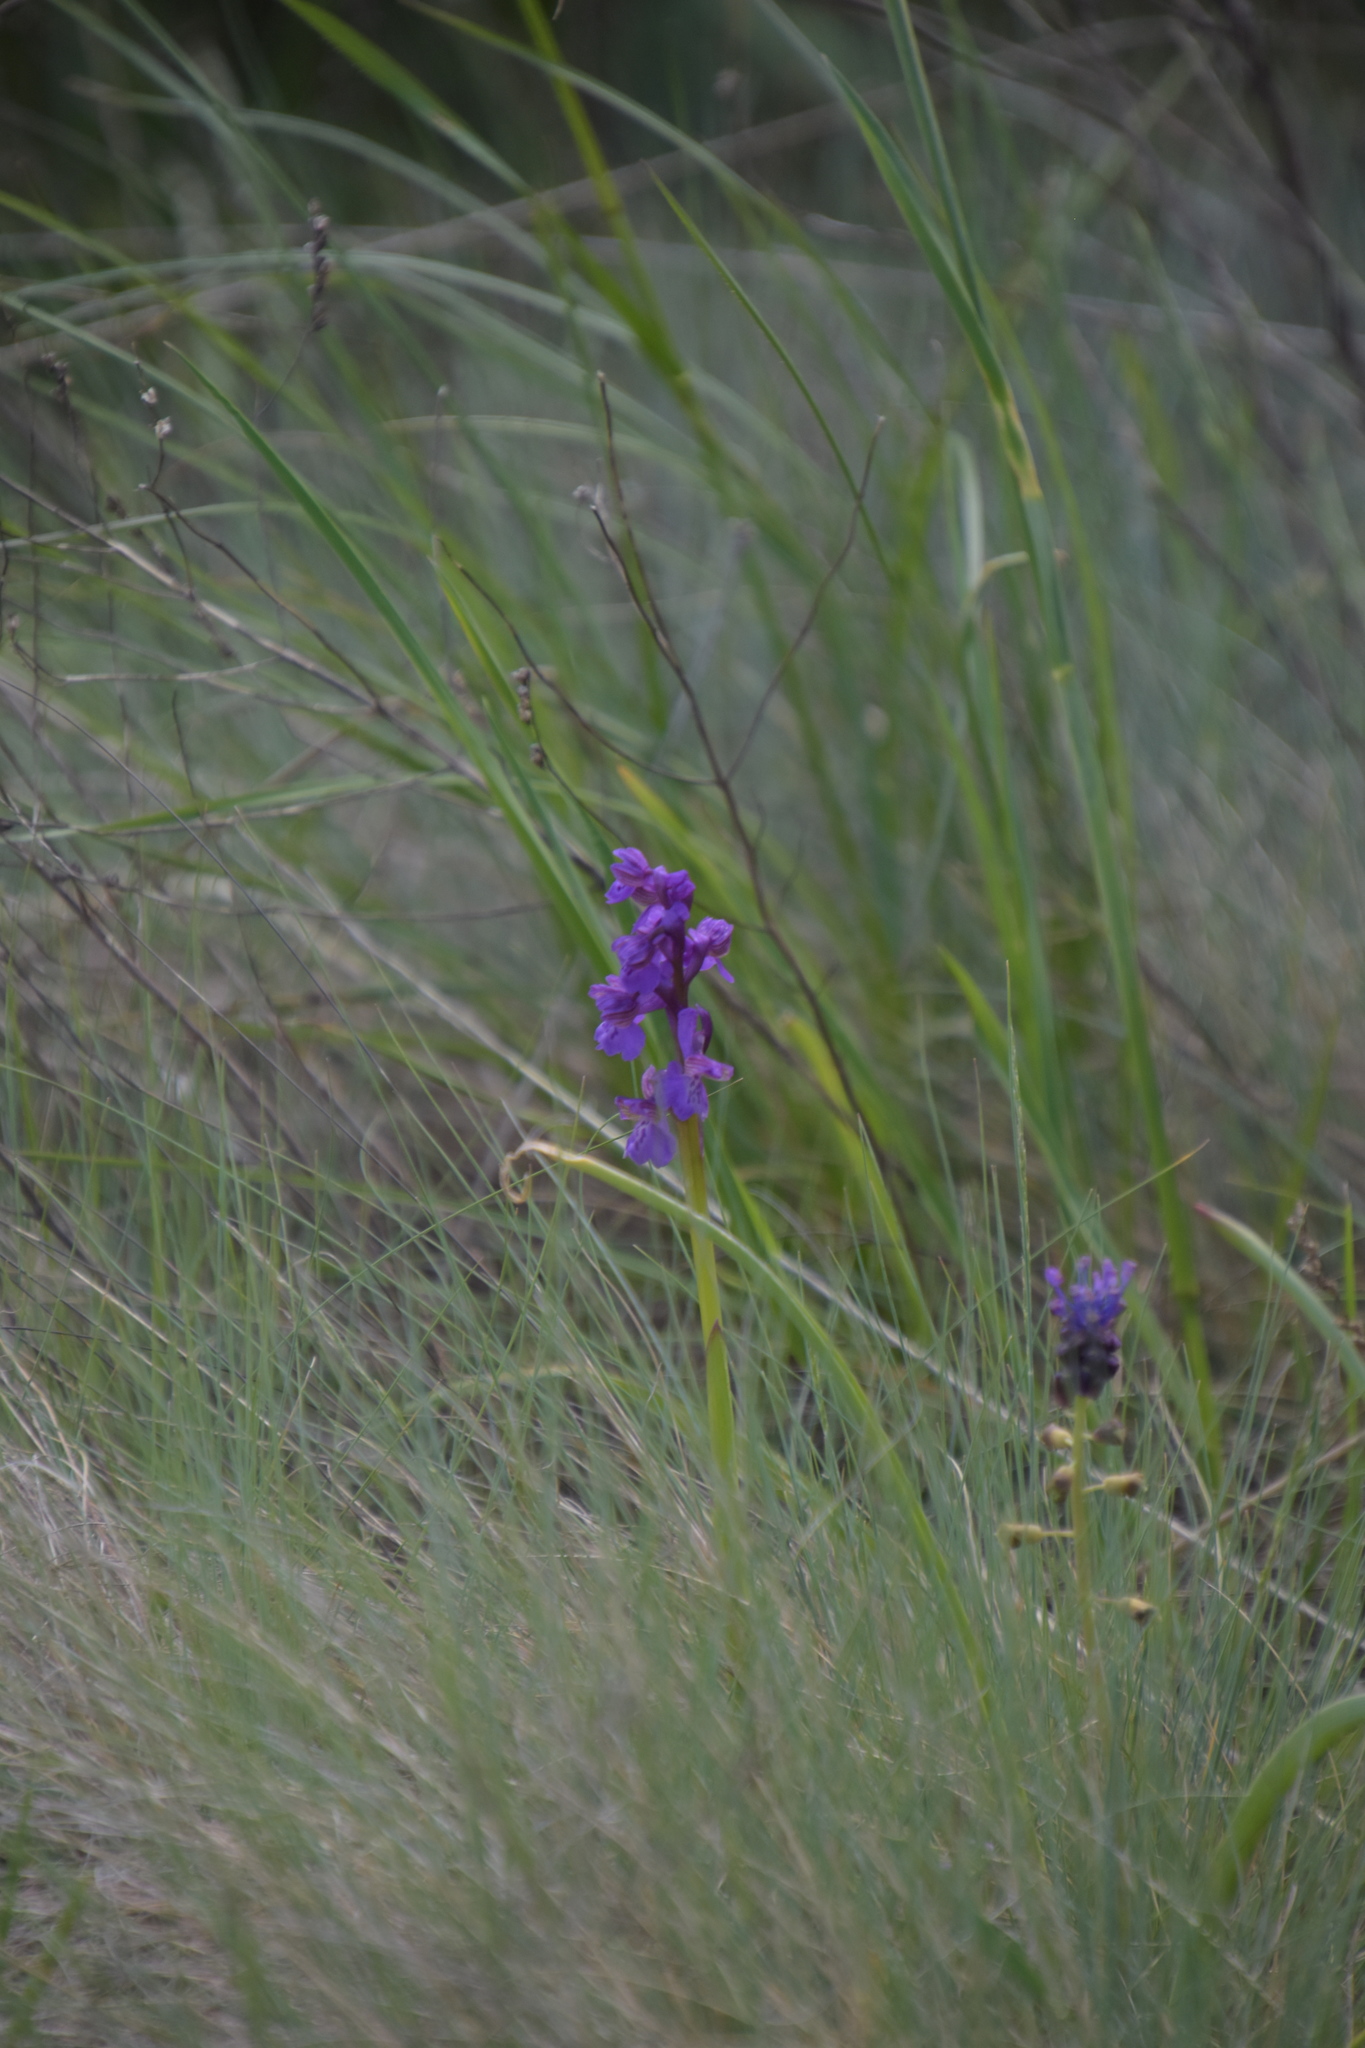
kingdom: Plantae
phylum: Tracheophyta
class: Liliopsida
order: Asparagales
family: Orchidaceae
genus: Anacamptis
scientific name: Anacamptis morio
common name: Green-winged orchid
